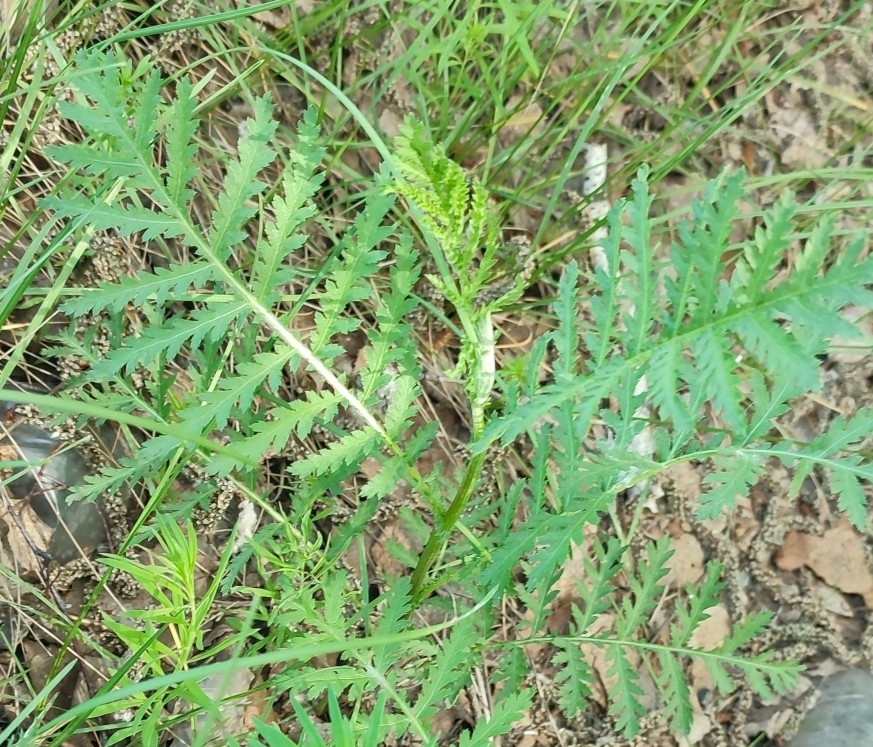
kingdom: Plantae
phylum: Tracheophyta
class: Magnoliopsida
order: Asterales
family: Asteraceae
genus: Tanacetum
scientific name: Tanacetum vulgare
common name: Common tansy
